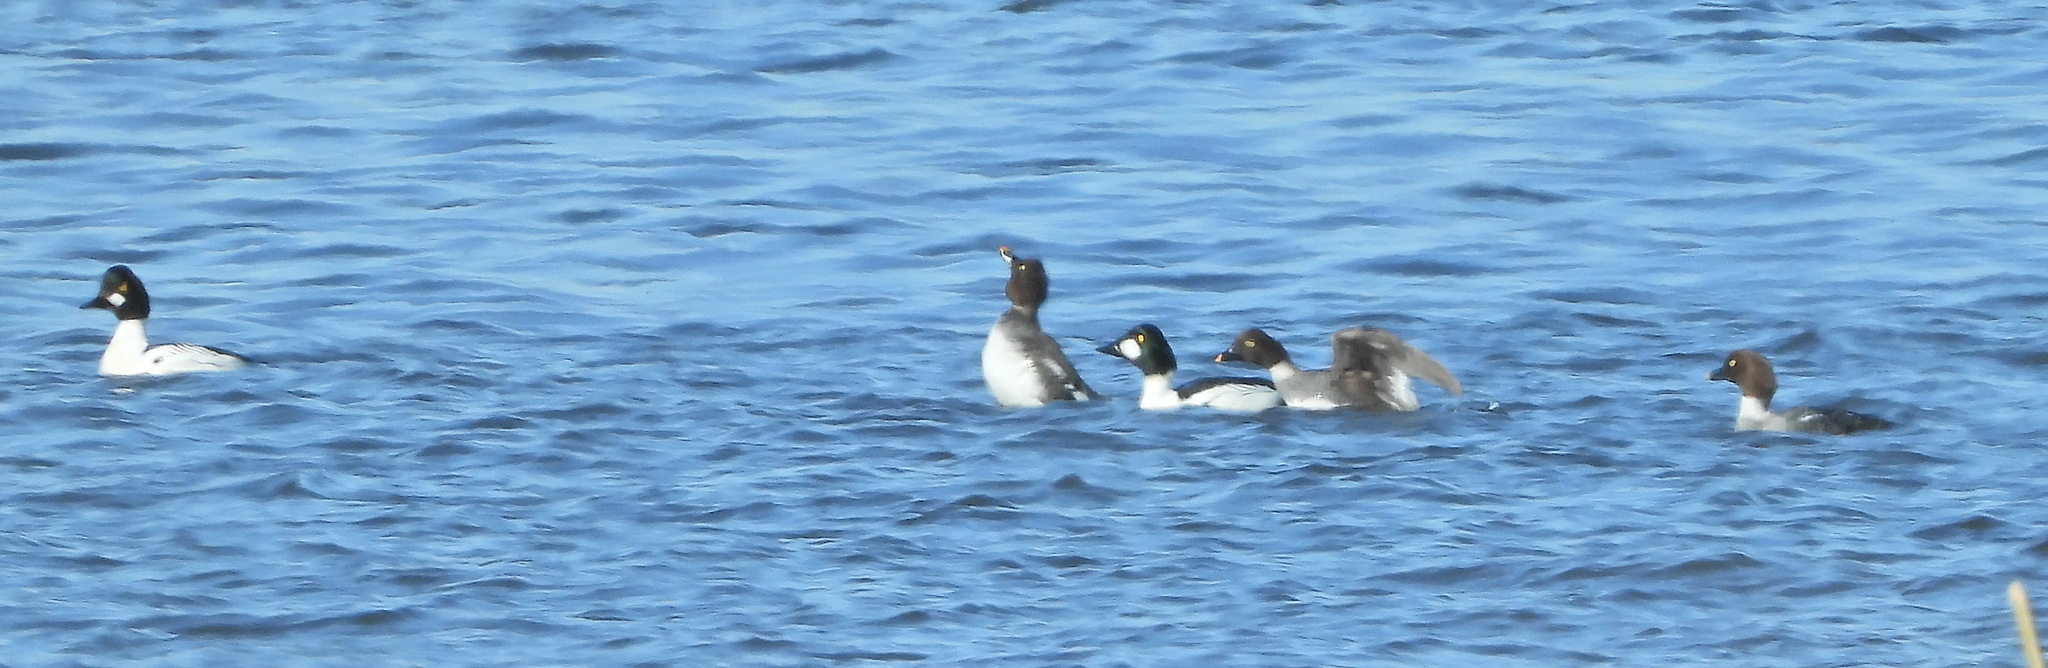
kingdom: Animalia
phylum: Chordata
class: Aves
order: Anseriformes
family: Anatidae
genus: Bucephala
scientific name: Bucephala clangula
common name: Common goldeneye
